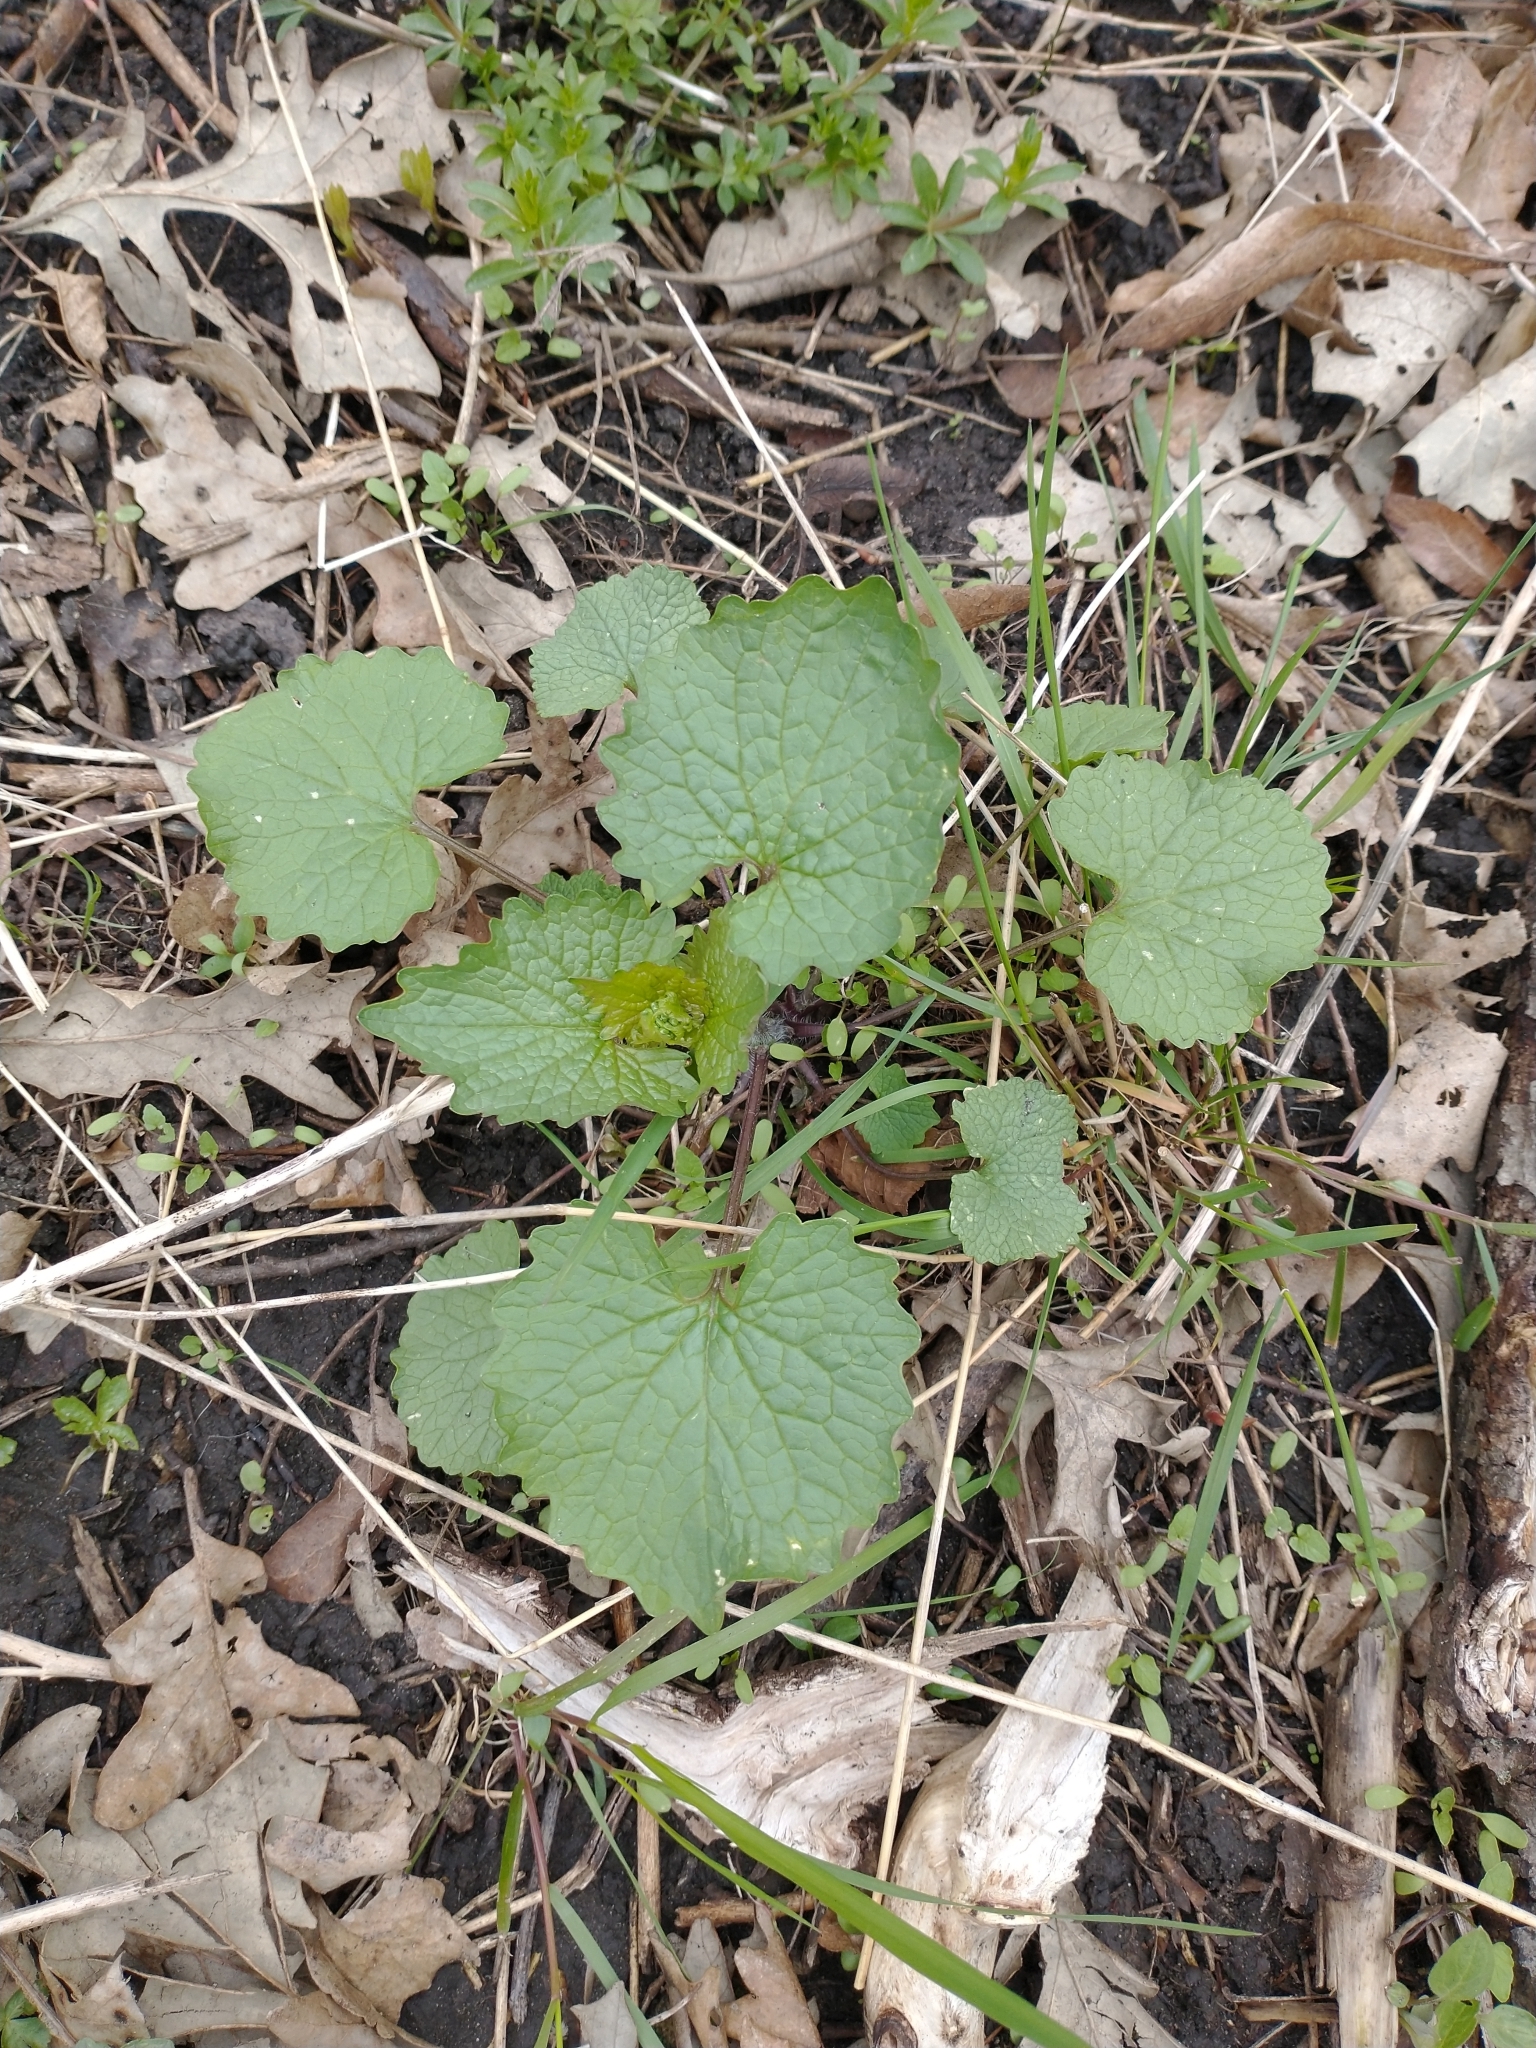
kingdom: Plantae
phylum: Tracheophyta
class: Magnoliopsida
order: Brassicales
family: Brassicaceae
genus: Alliaria
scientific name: Alliaria petiolata
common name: Garlic mustard
